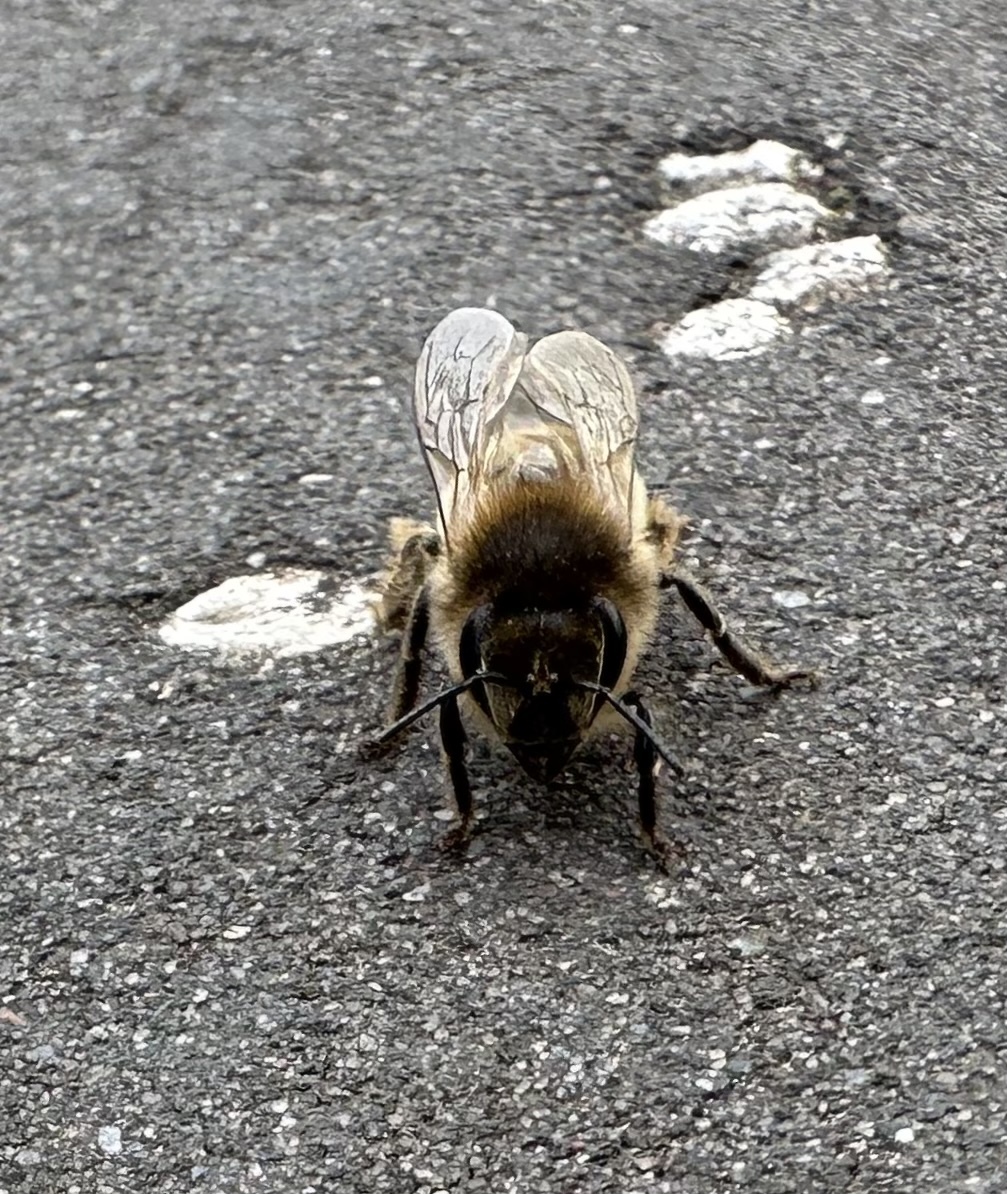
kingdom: Animalia
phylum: Arthropoda
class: Insecta
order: Hymenoptera
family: Apidae
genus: Apis
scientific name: Apis mellifera
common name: Honey bee
